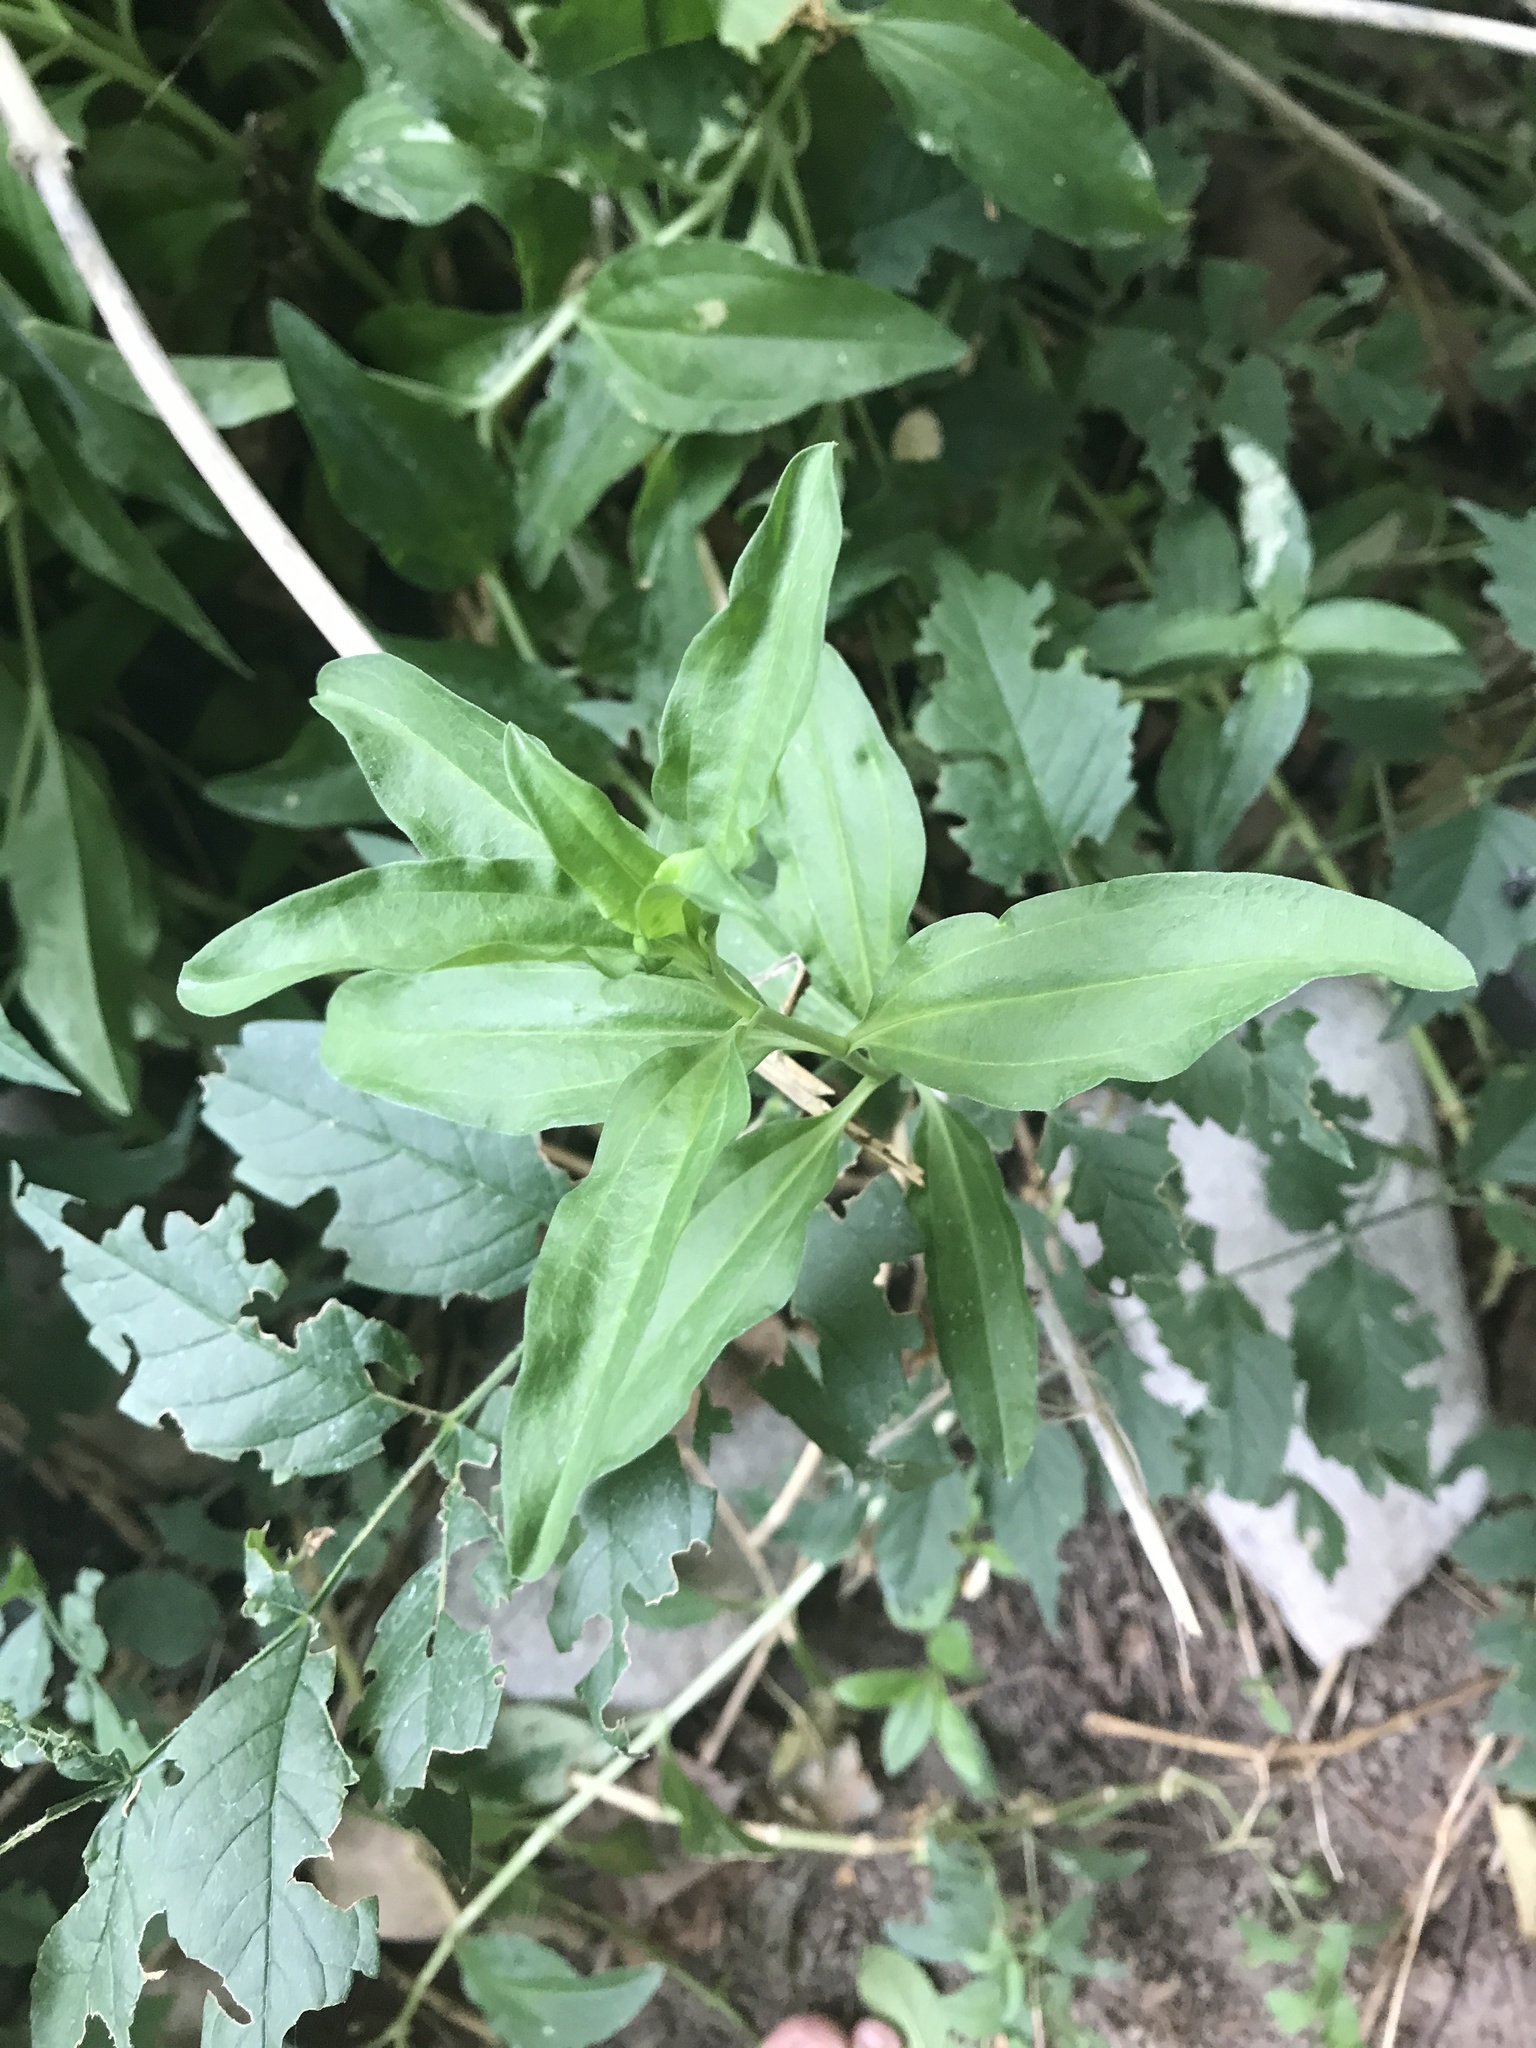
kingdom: Plantae
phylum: Tracheophyta
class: Magnoliopsida
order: Caryophyllales
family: Caryophyllaceae
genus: Saponaria
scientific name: Saponaria officinalis
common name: Soapwort
